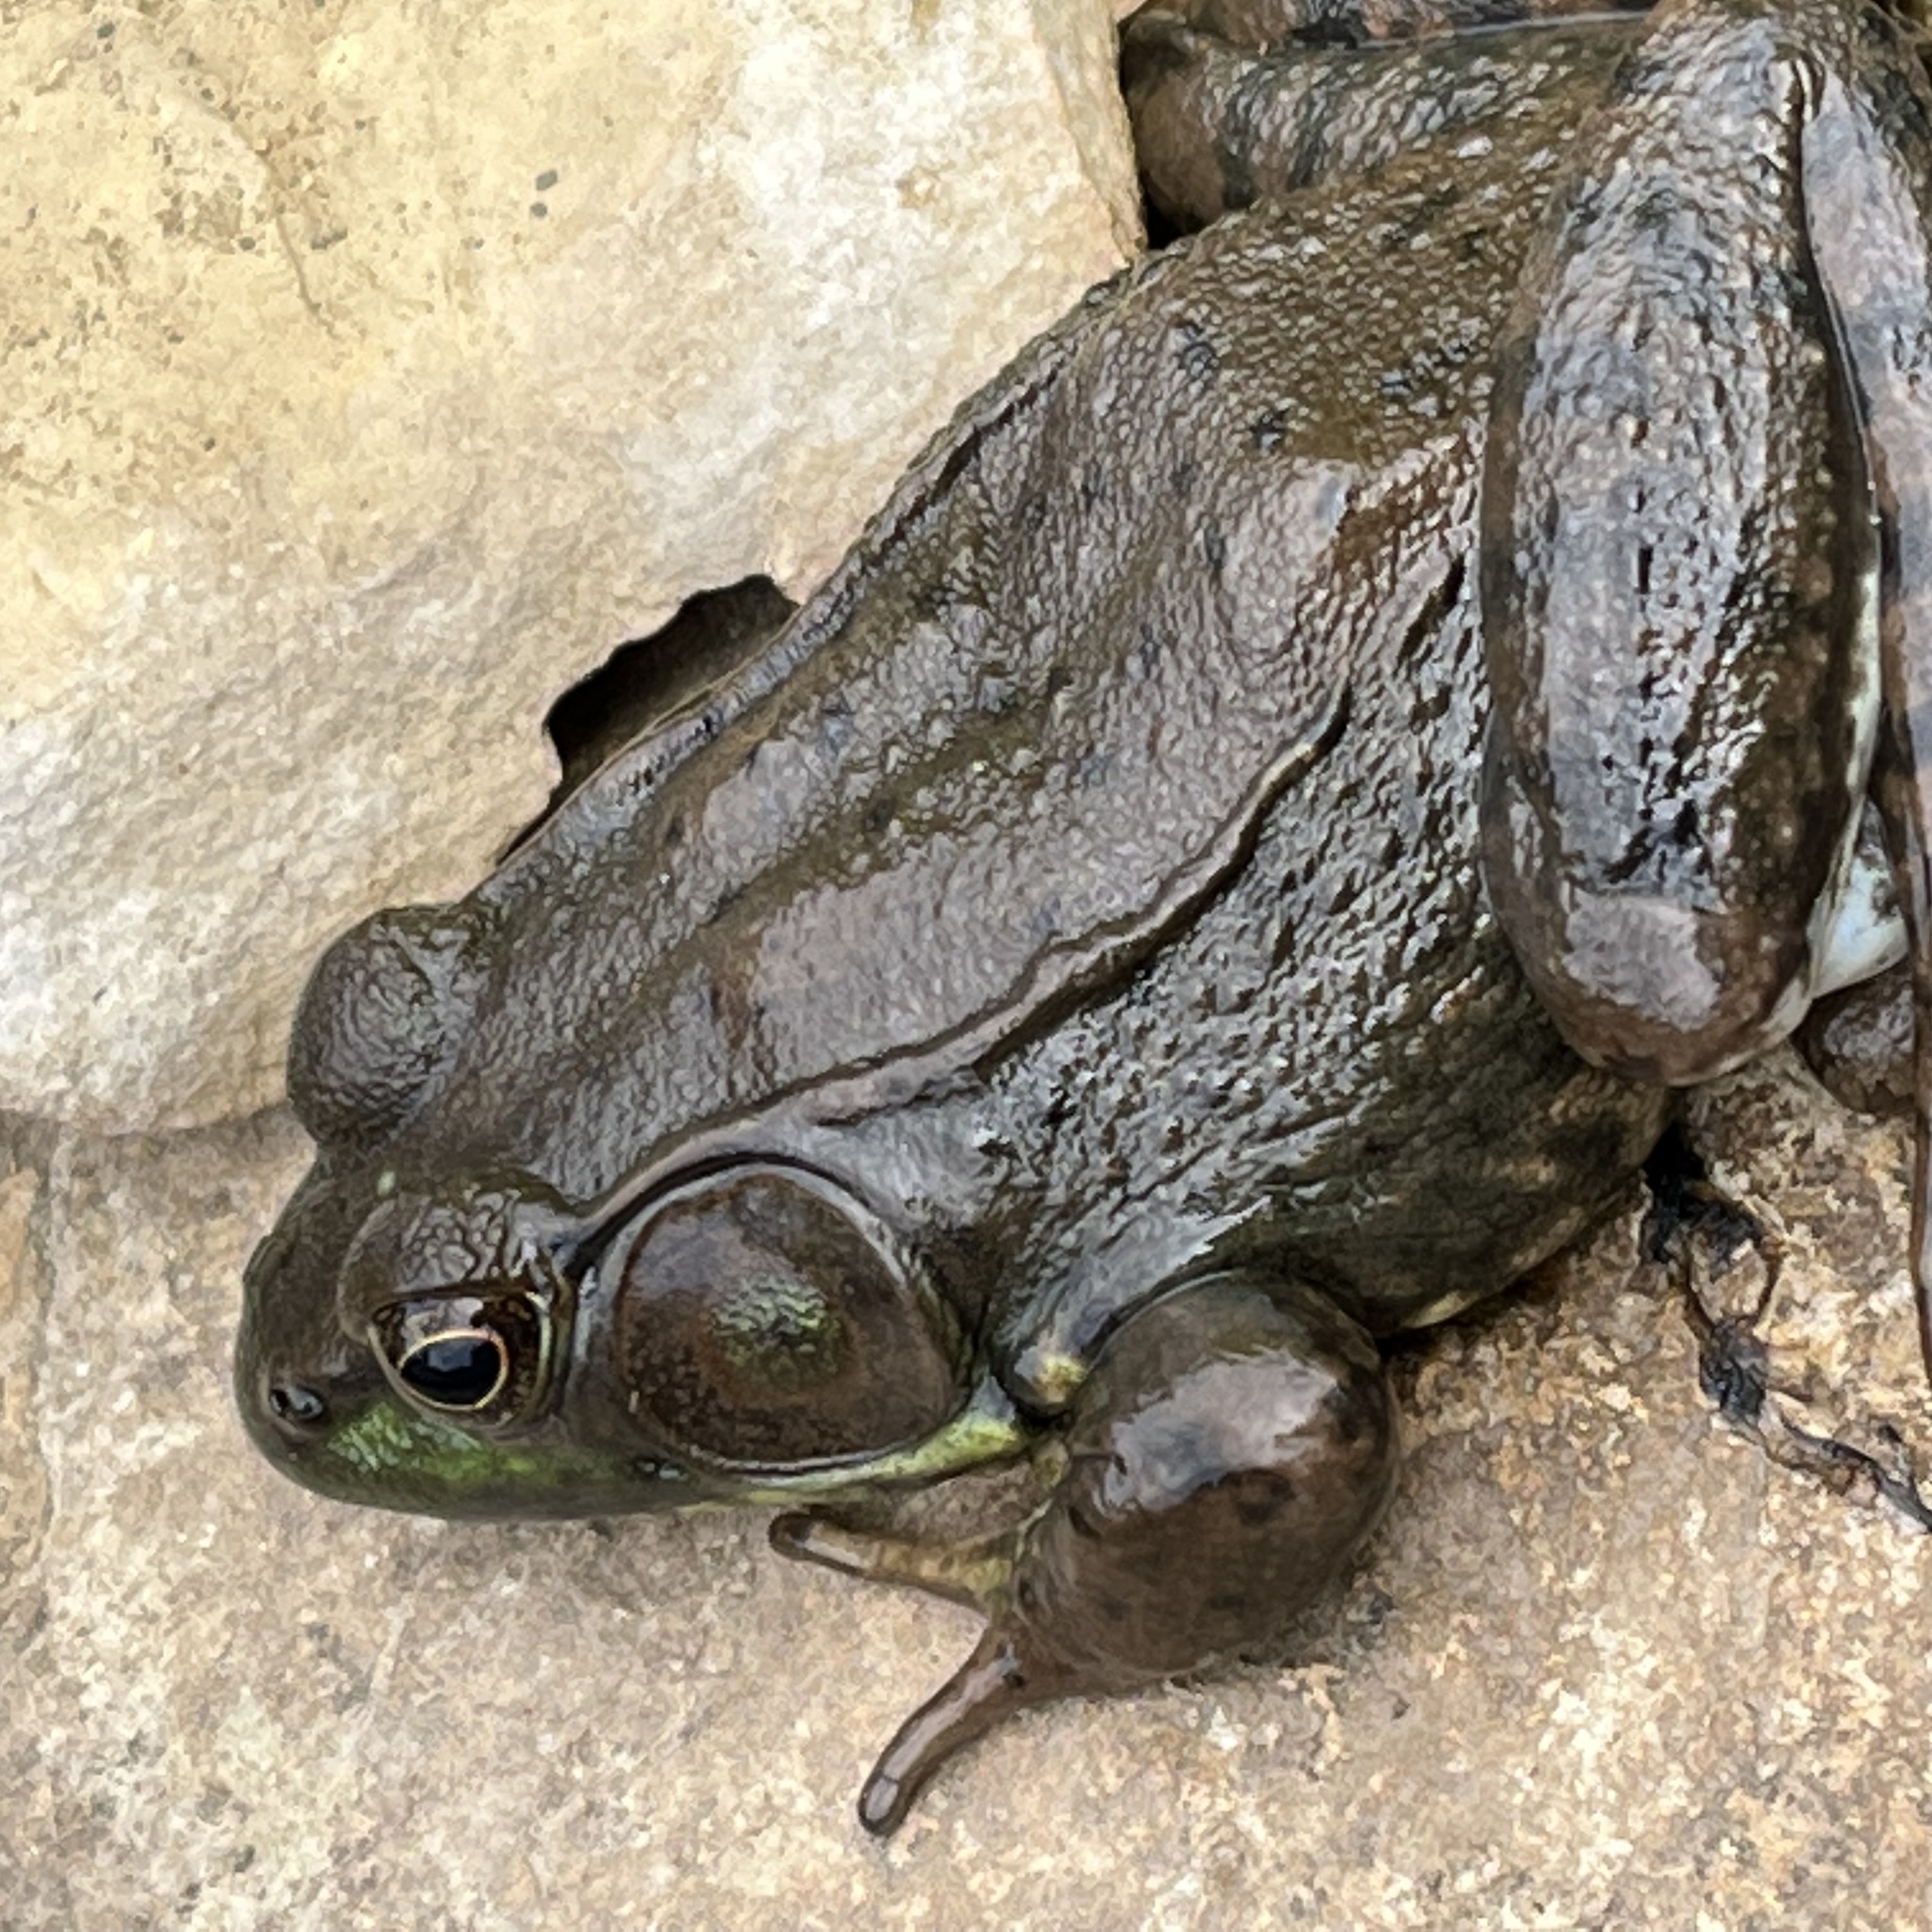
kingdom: Animalia
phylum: Chordata
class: Amphibia
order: Anura
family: Ranidae
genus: Lithobates
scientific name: Lithobates clamitans
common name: Green frog
